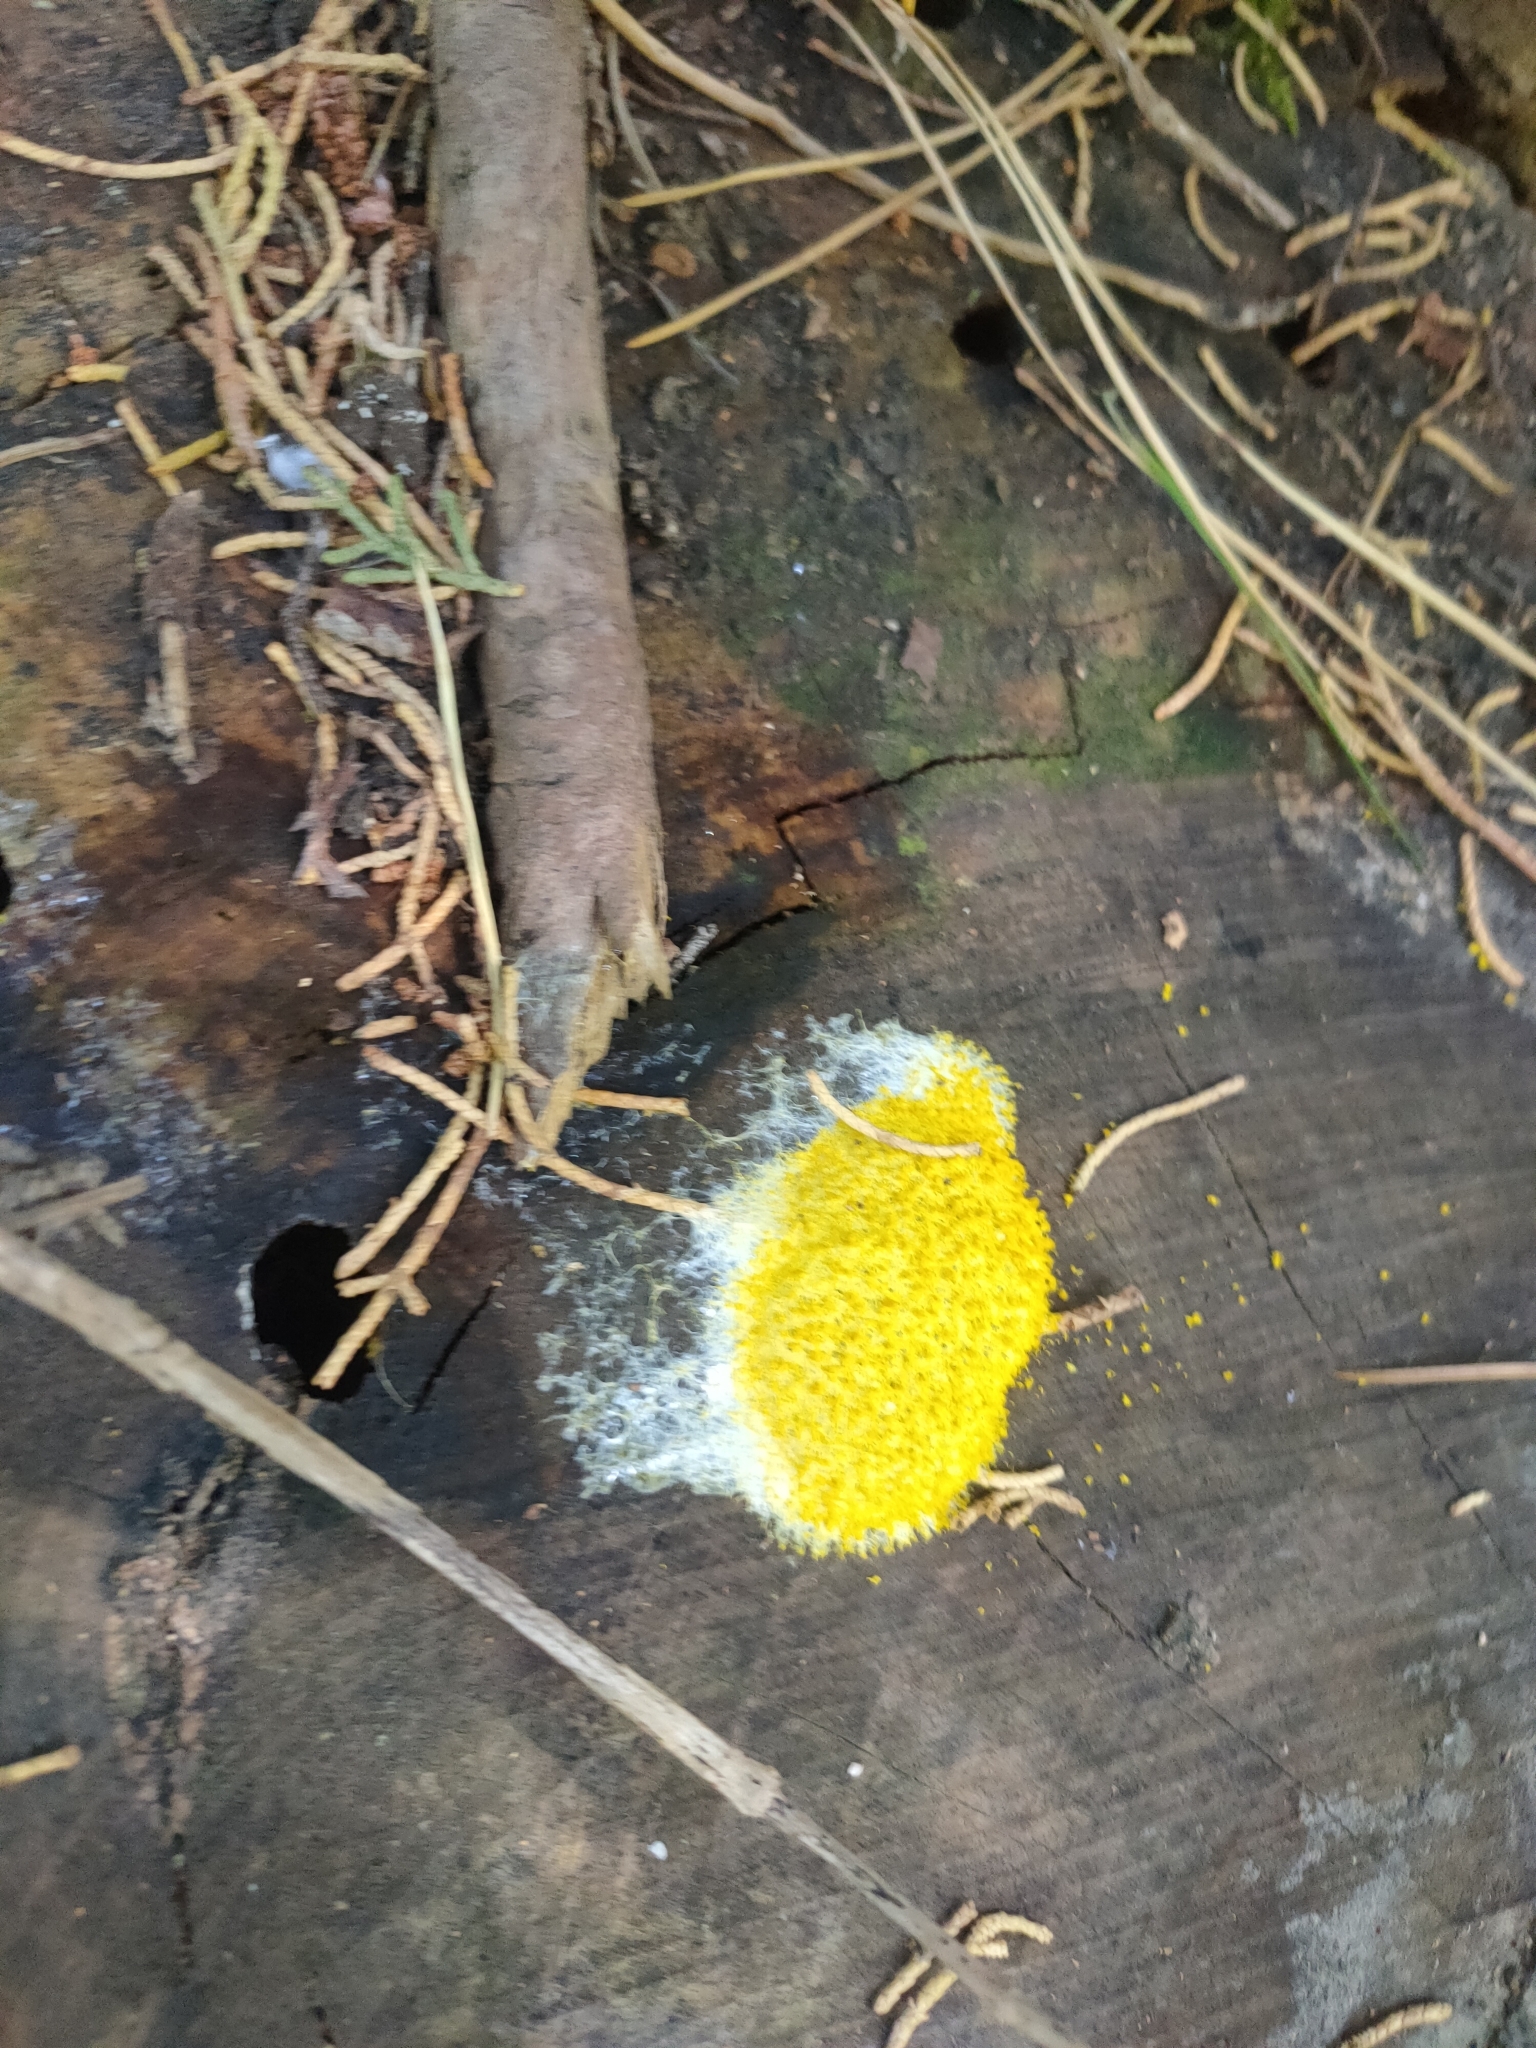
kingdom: Protozoa
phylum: Mycetozoa
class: Myxomycetes
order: Physarales
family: Physaraceae
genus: Fuligo
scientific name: Fuligo septica
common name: Dog vomit slime mold
